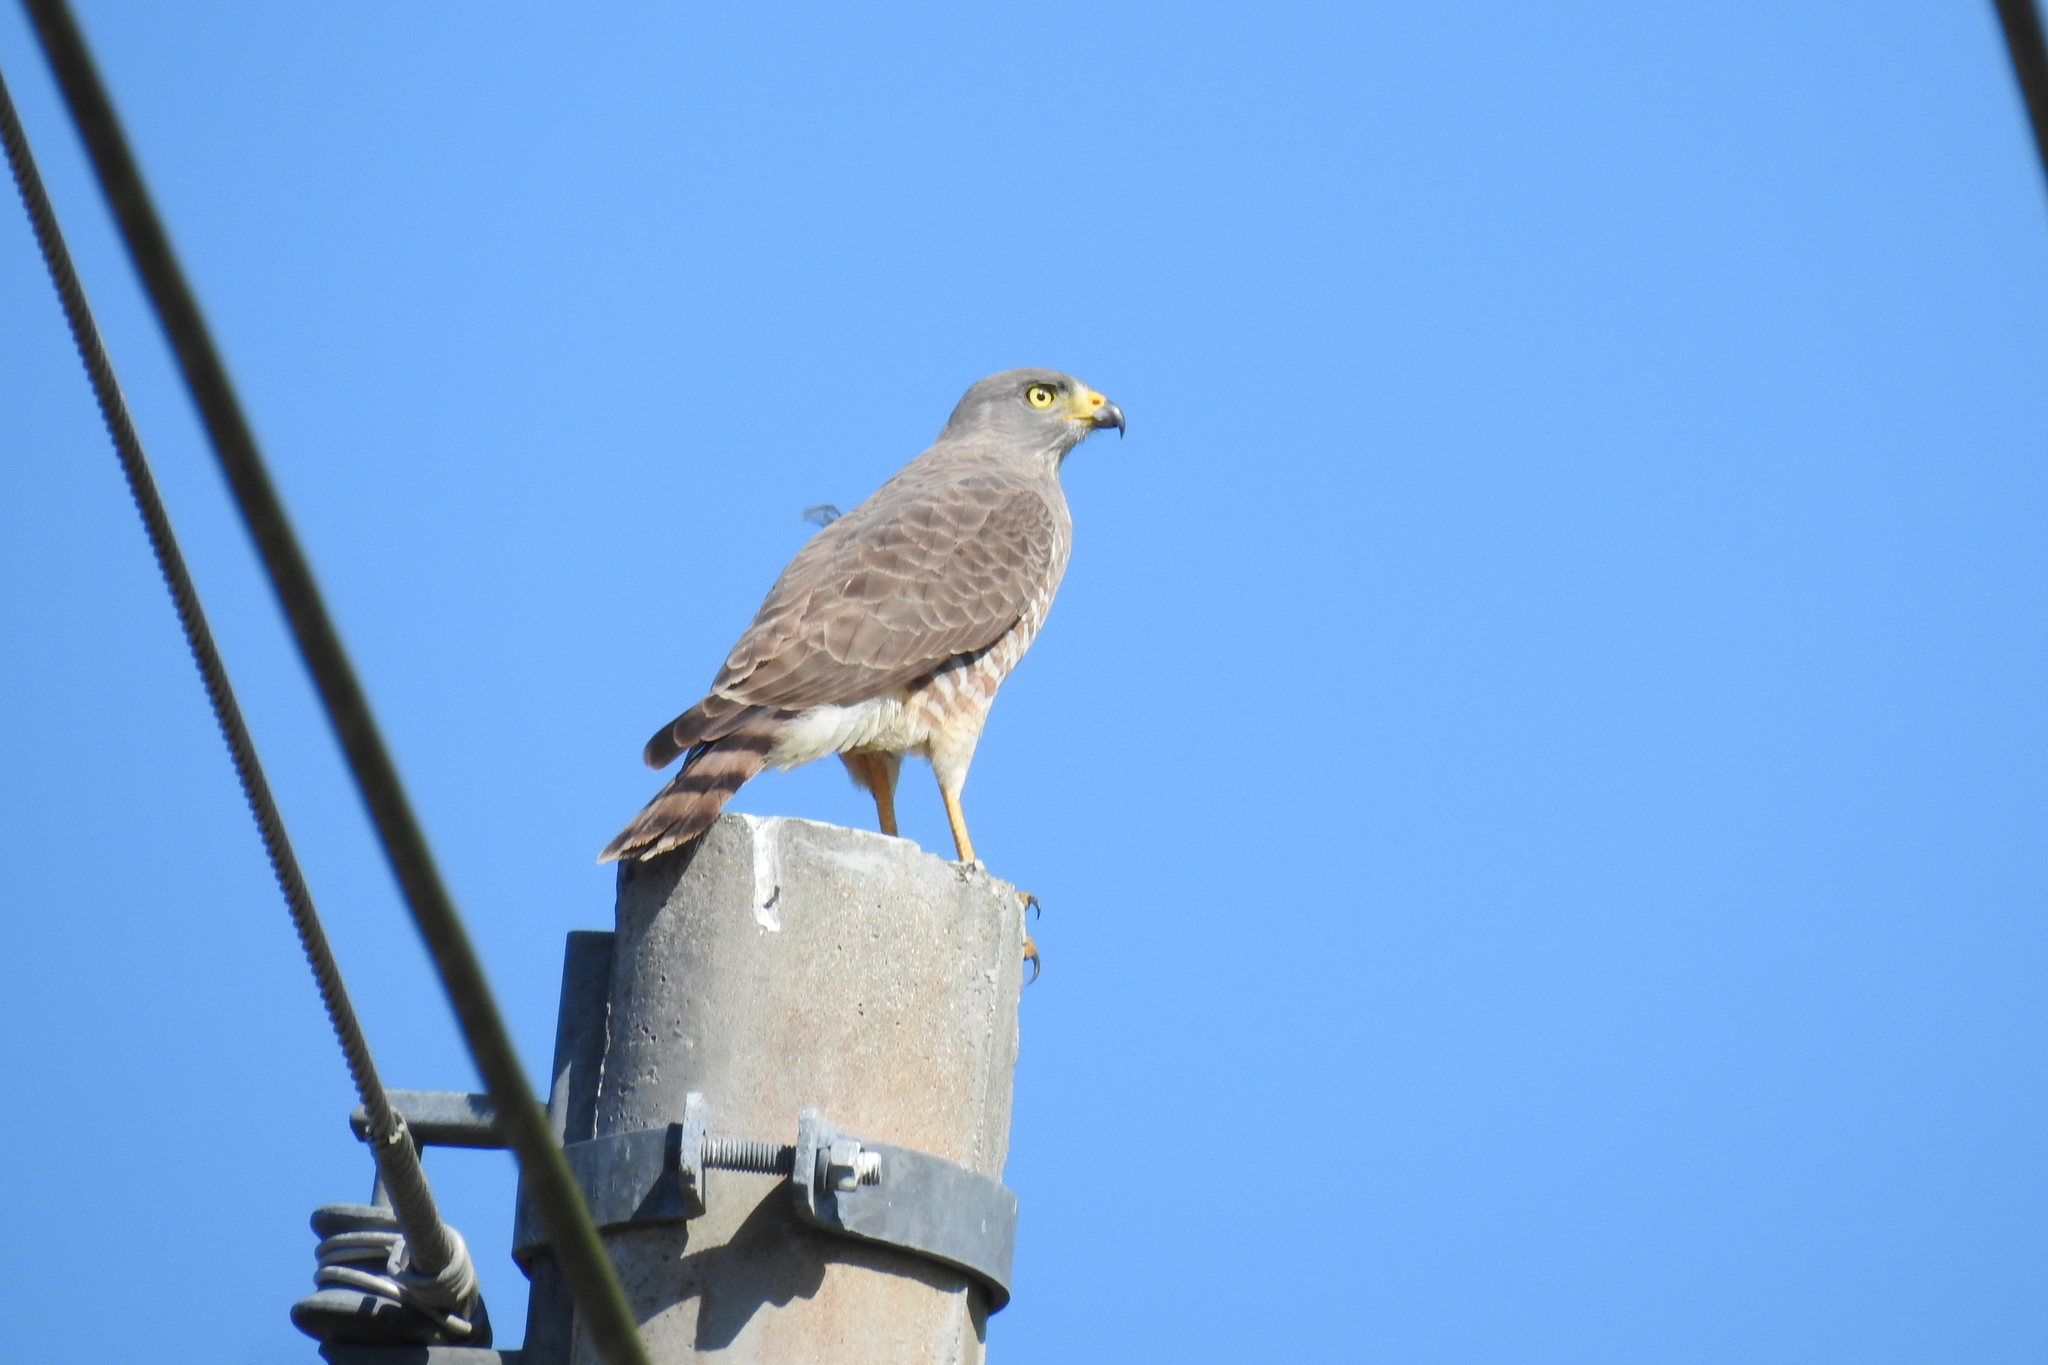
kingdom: Animalia
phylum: Chordata
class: Aves
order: Accipitriformes
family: Accipitridae
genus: Rupornis
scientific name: Rupornis magnirostris
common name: Roadside hawk
